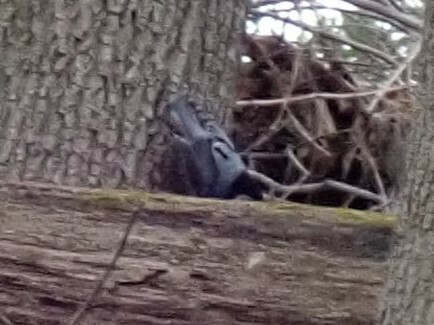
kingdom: Animalia
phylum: Chordata
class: Aves
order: Passeriformes
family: Sittidae
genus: Sitta
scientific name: Sitta carolinensis
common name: White-breasted nuthatch
